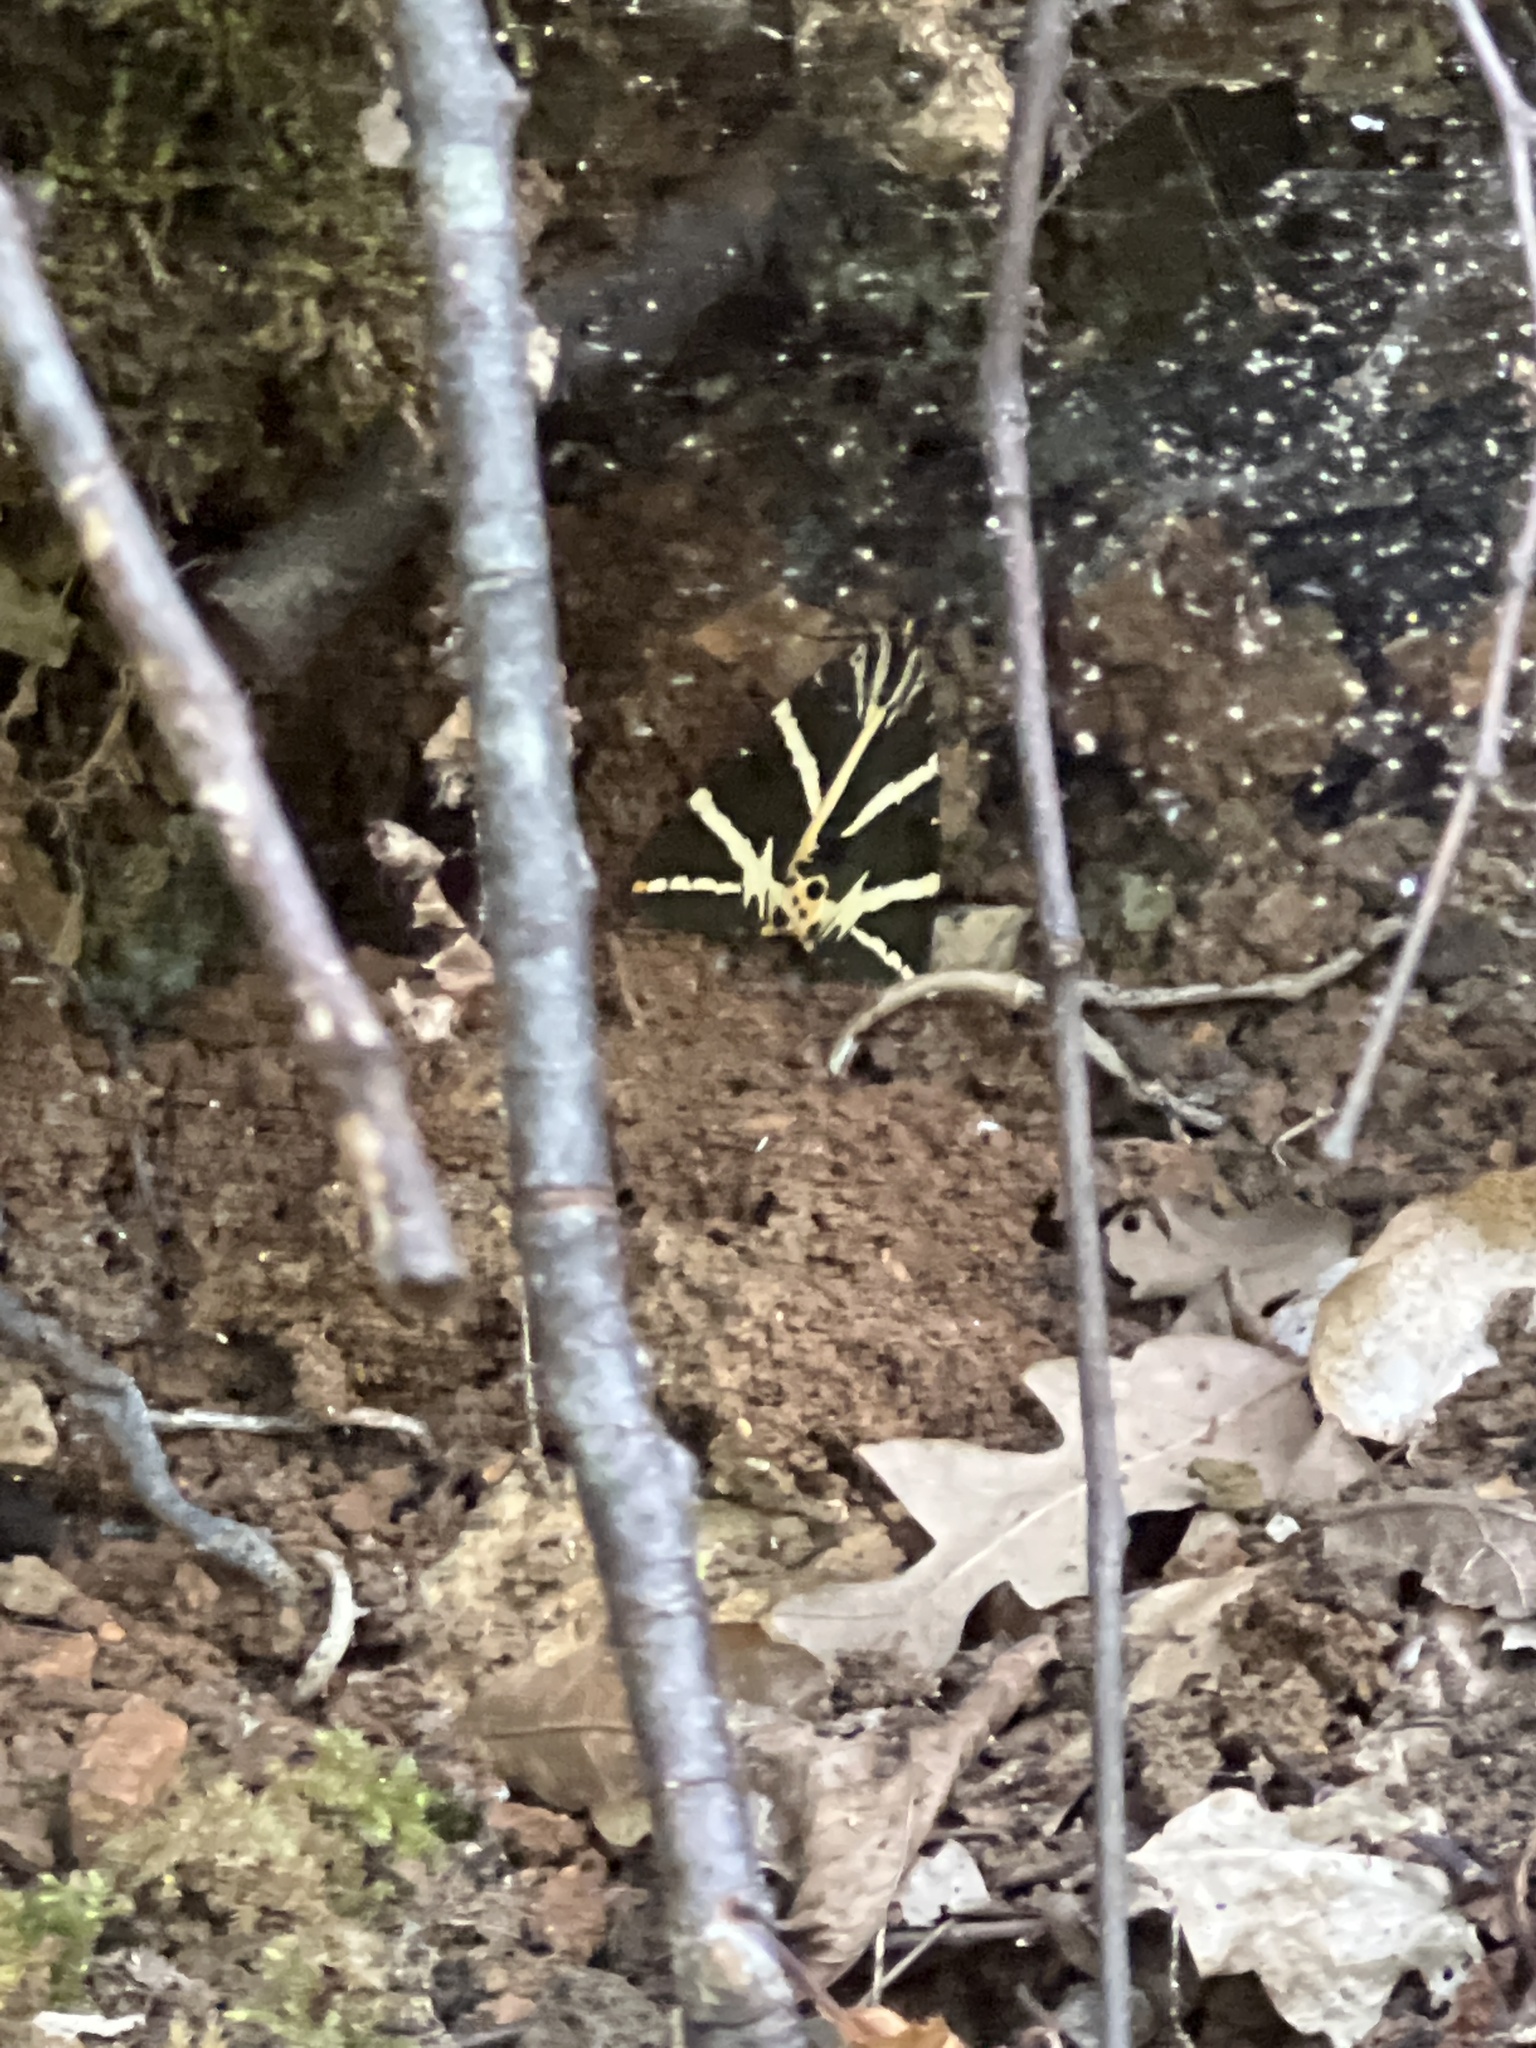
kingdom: Animalia
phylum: Arthropoda
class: Insecta
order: Lepidoptera
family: Erebidae
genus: Euplagia
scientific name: Euplagia quadripunctaria
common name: Jersey tiger
